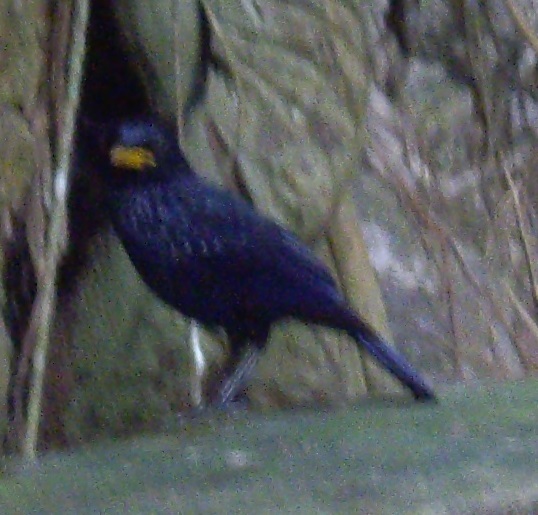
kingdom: Animalia
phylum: Chordata
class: Aves
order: Passeriformes
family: Muscicapidae
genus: Myophonus
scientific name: Myophonus caeruleus
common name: Blue whistling-thrush
